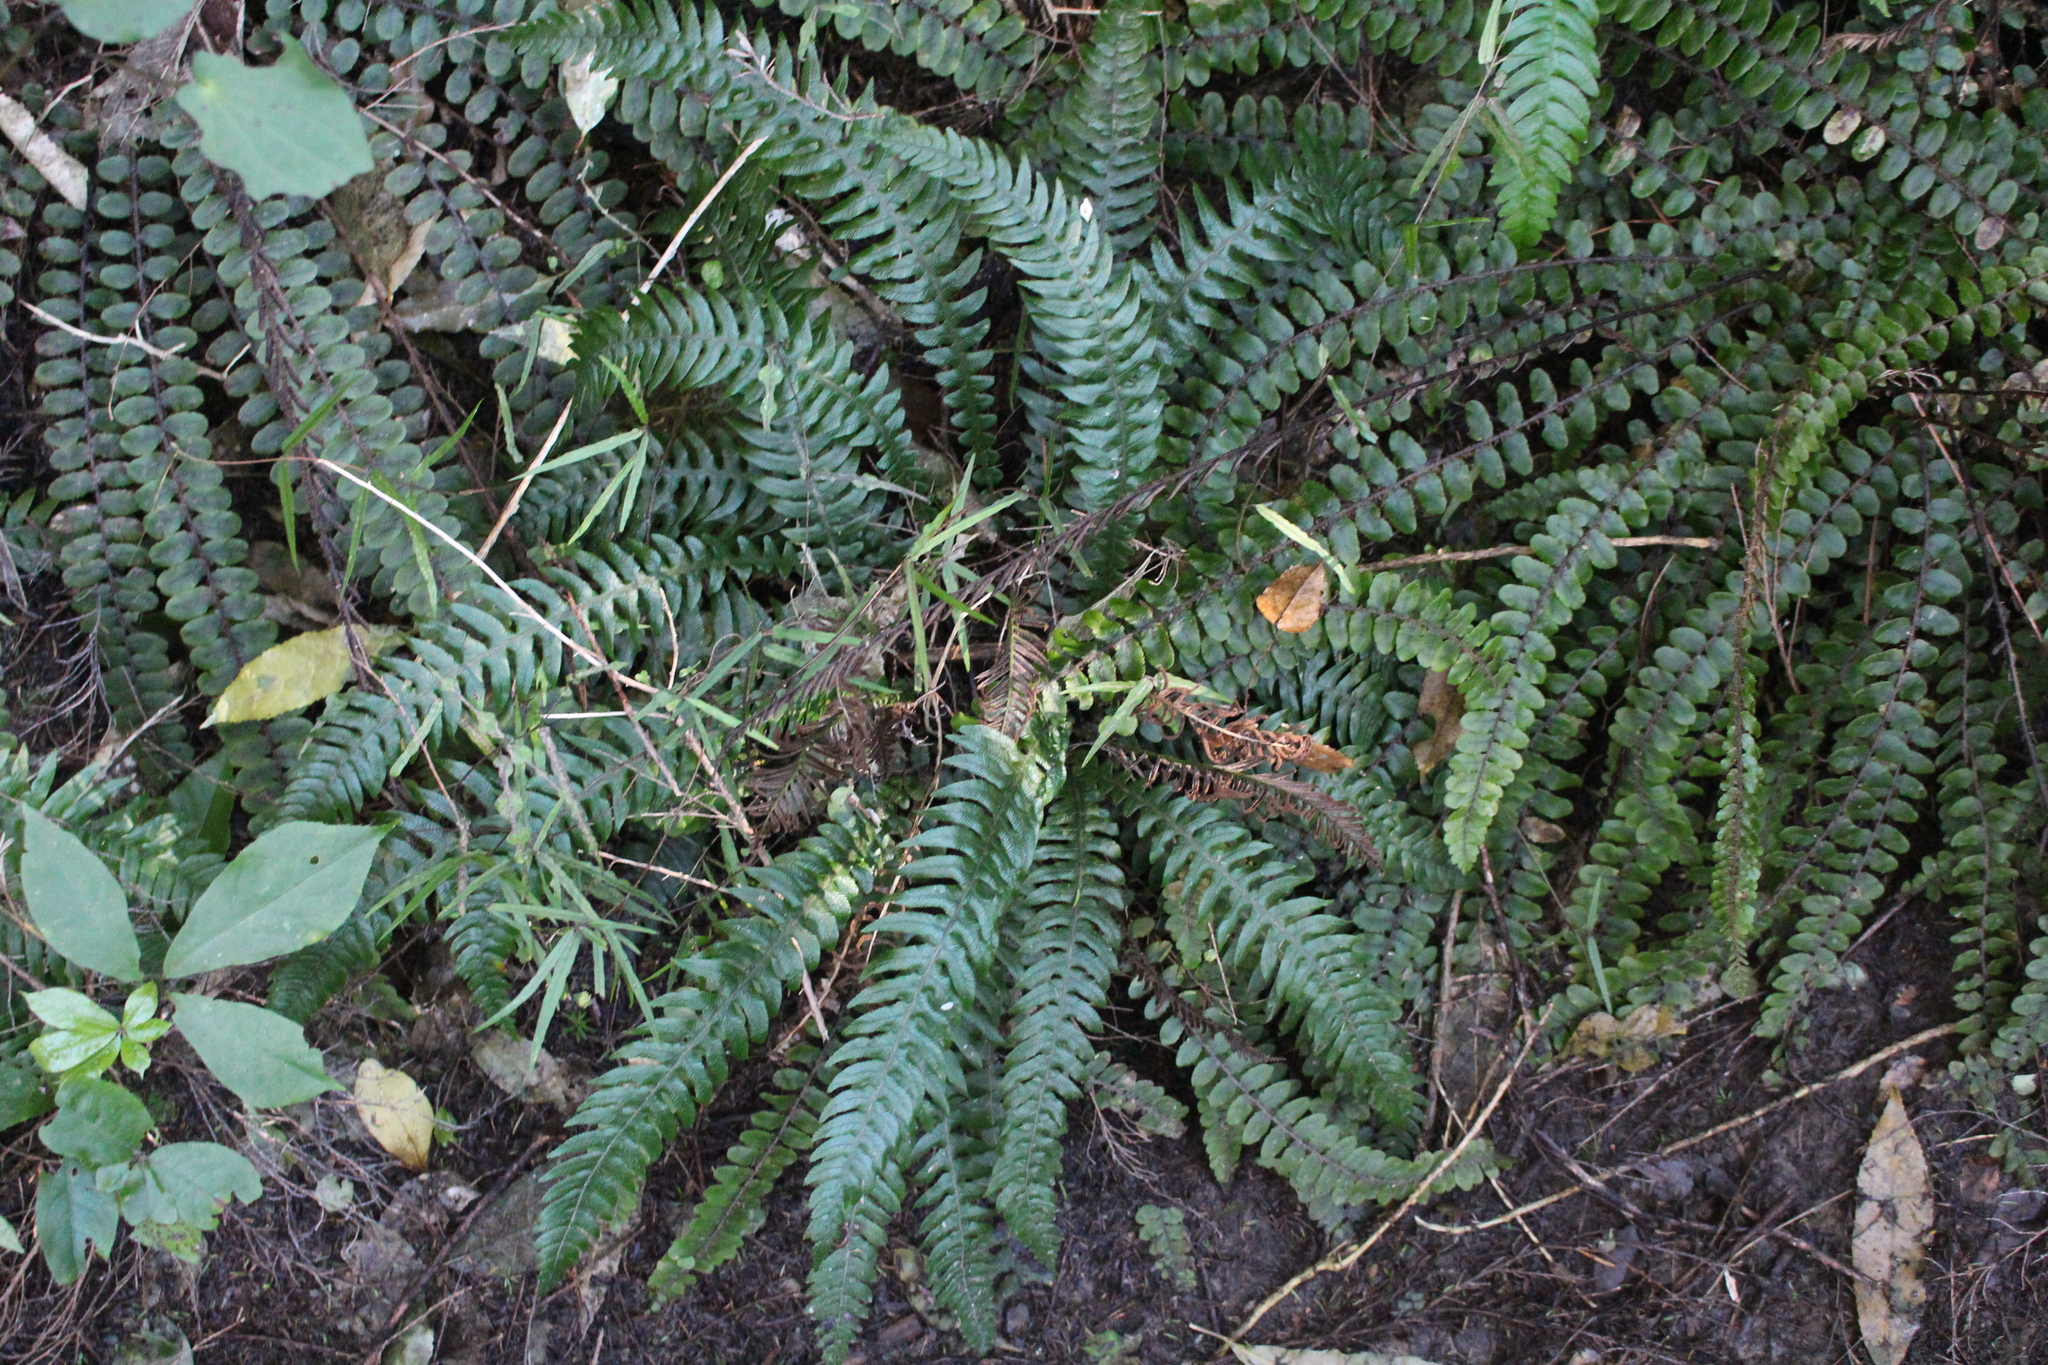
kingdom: Plantae
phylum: Tracheophyta
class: Polypodiopsida
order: Polypodiales
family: Blechnaceae
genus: Austroblechnum
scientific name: Austroblechnum lanceolatum
